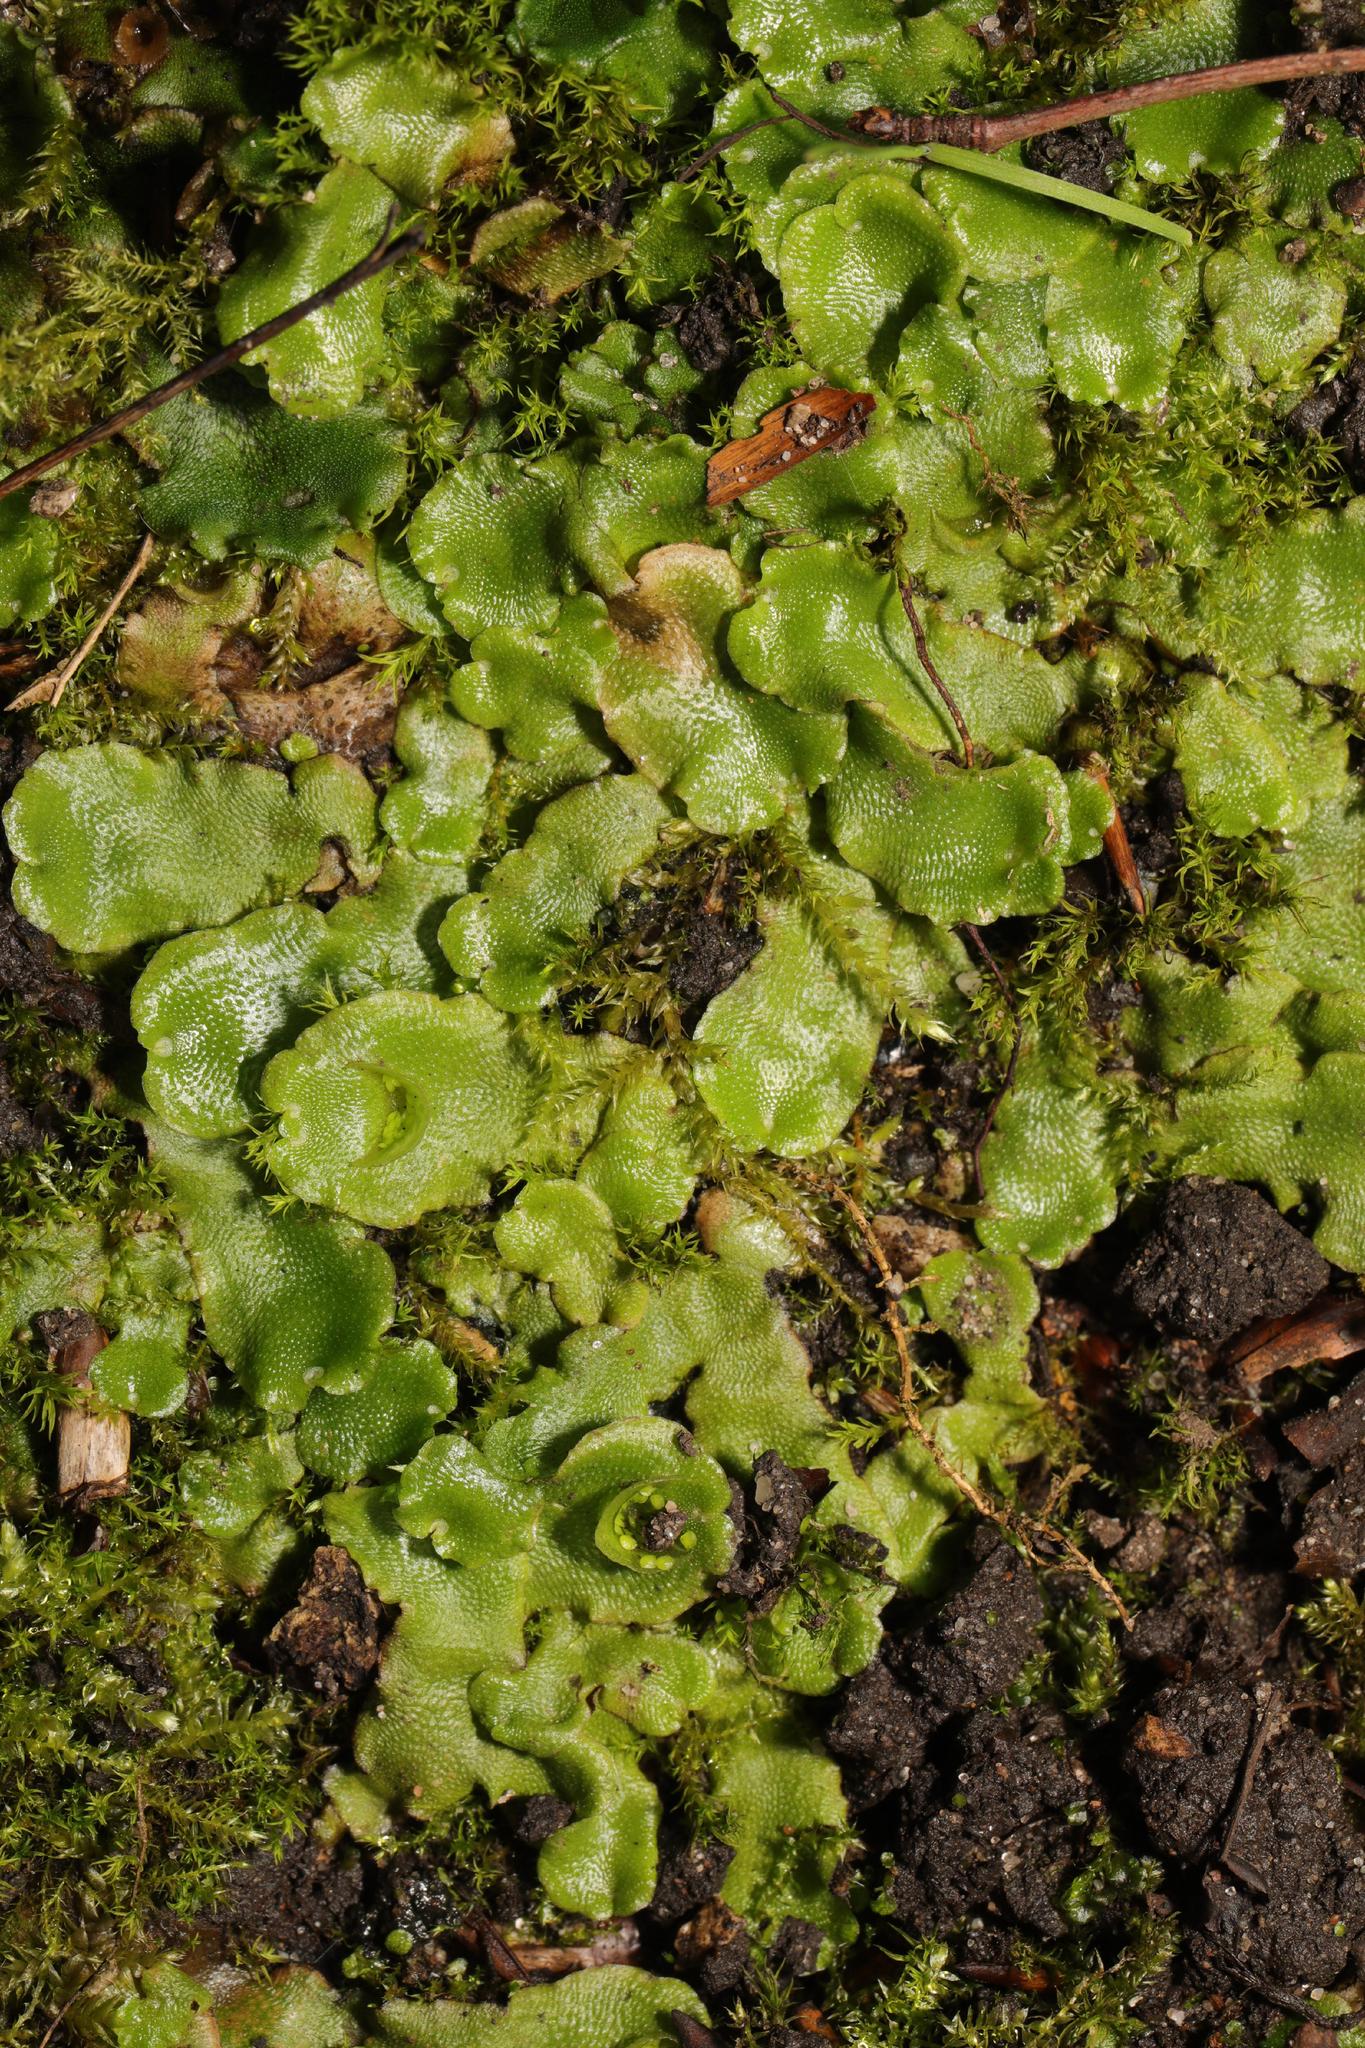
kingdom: Plantae
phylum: Marchantiophyta
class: Marchantiopsida
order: Lunulariales
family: Lunulariaceae
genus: Lunularia
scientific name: Lunularia cruciata
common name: Crescent-cup liverwort
